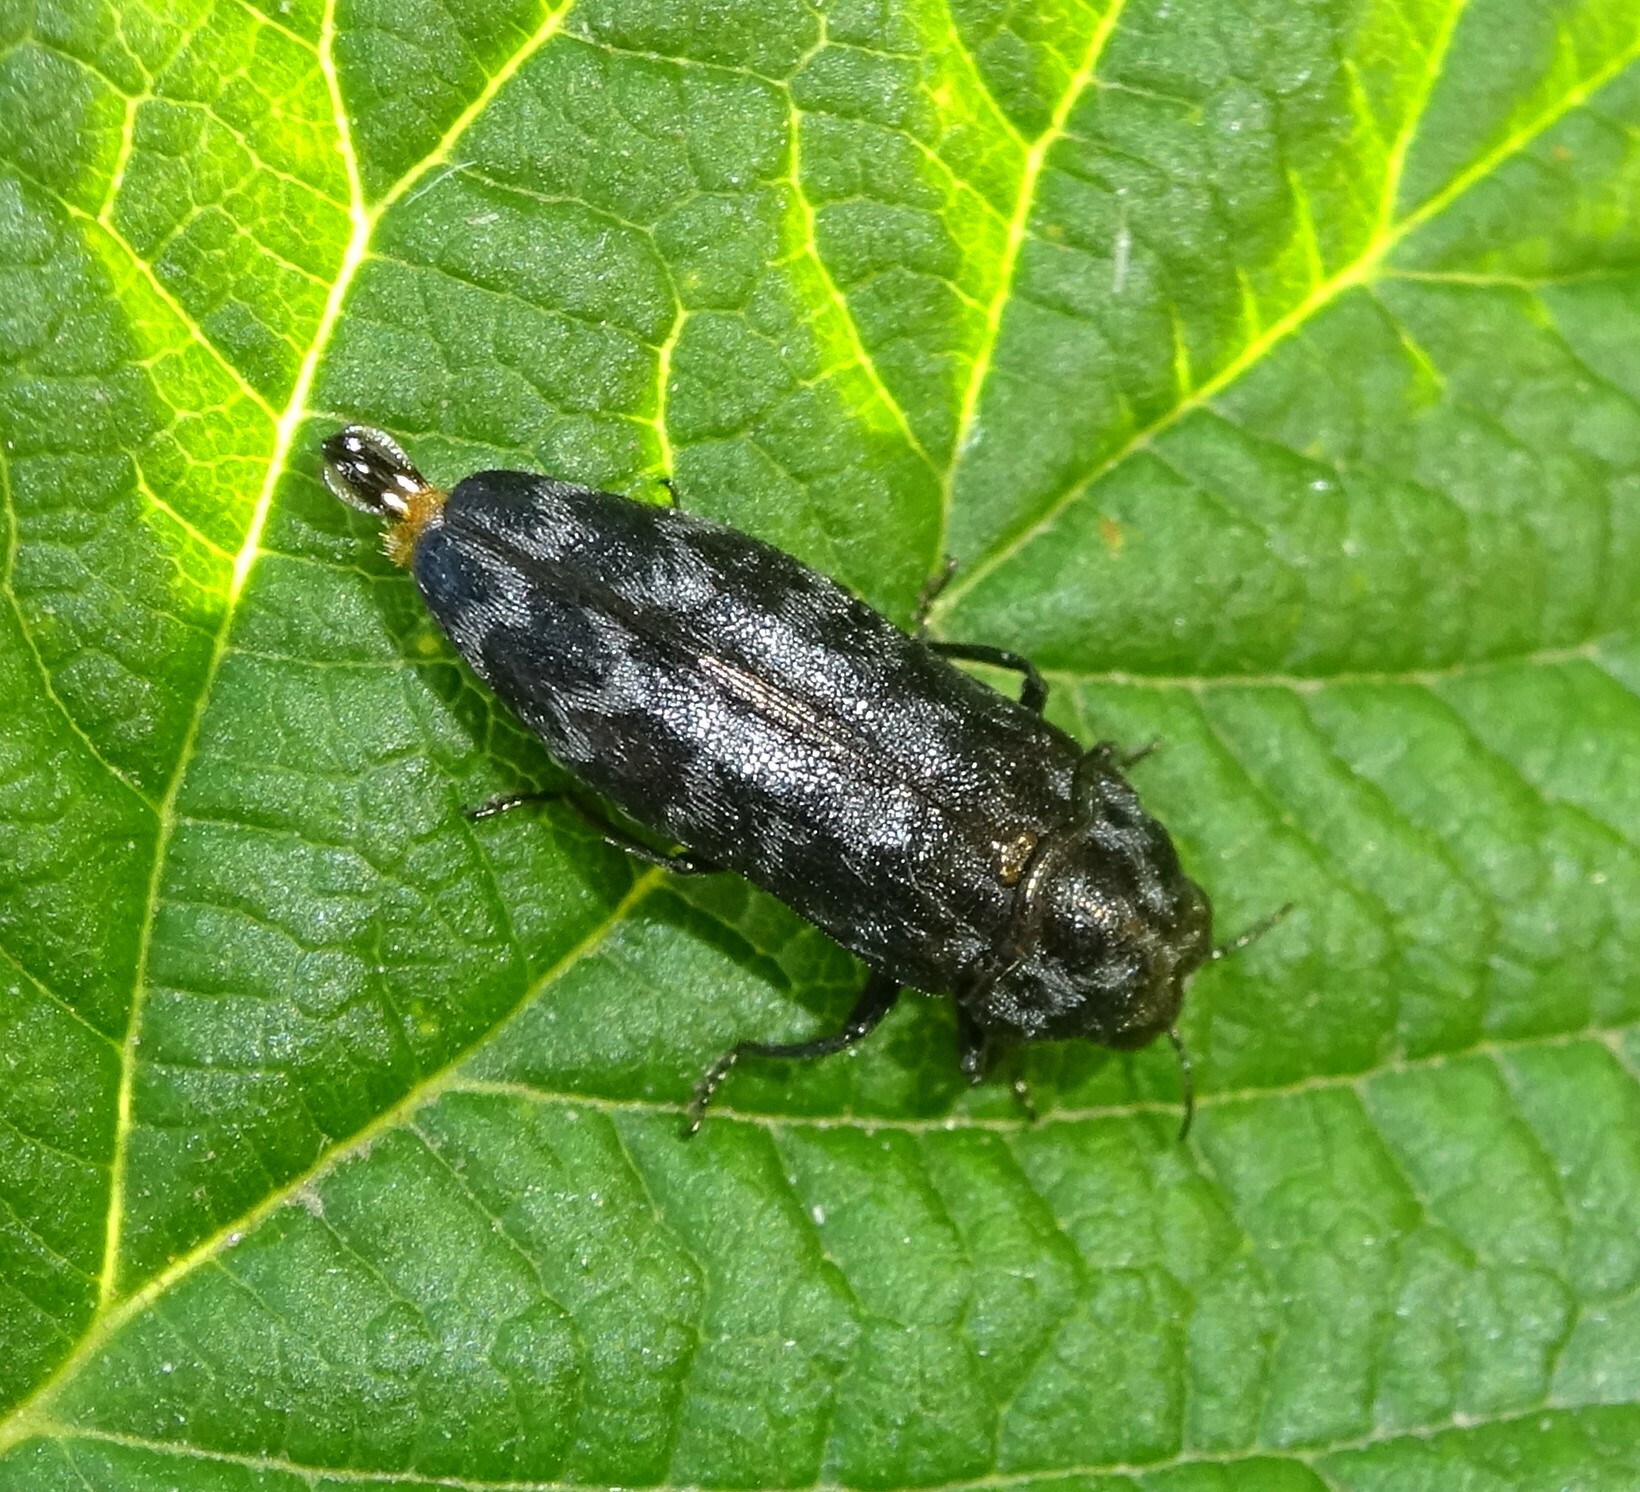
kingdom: Animalia
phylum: Arthropoda
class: Insecta
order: Coleoptera
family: Buprestidae
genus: Coraebus
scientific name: Coraebus rubi
